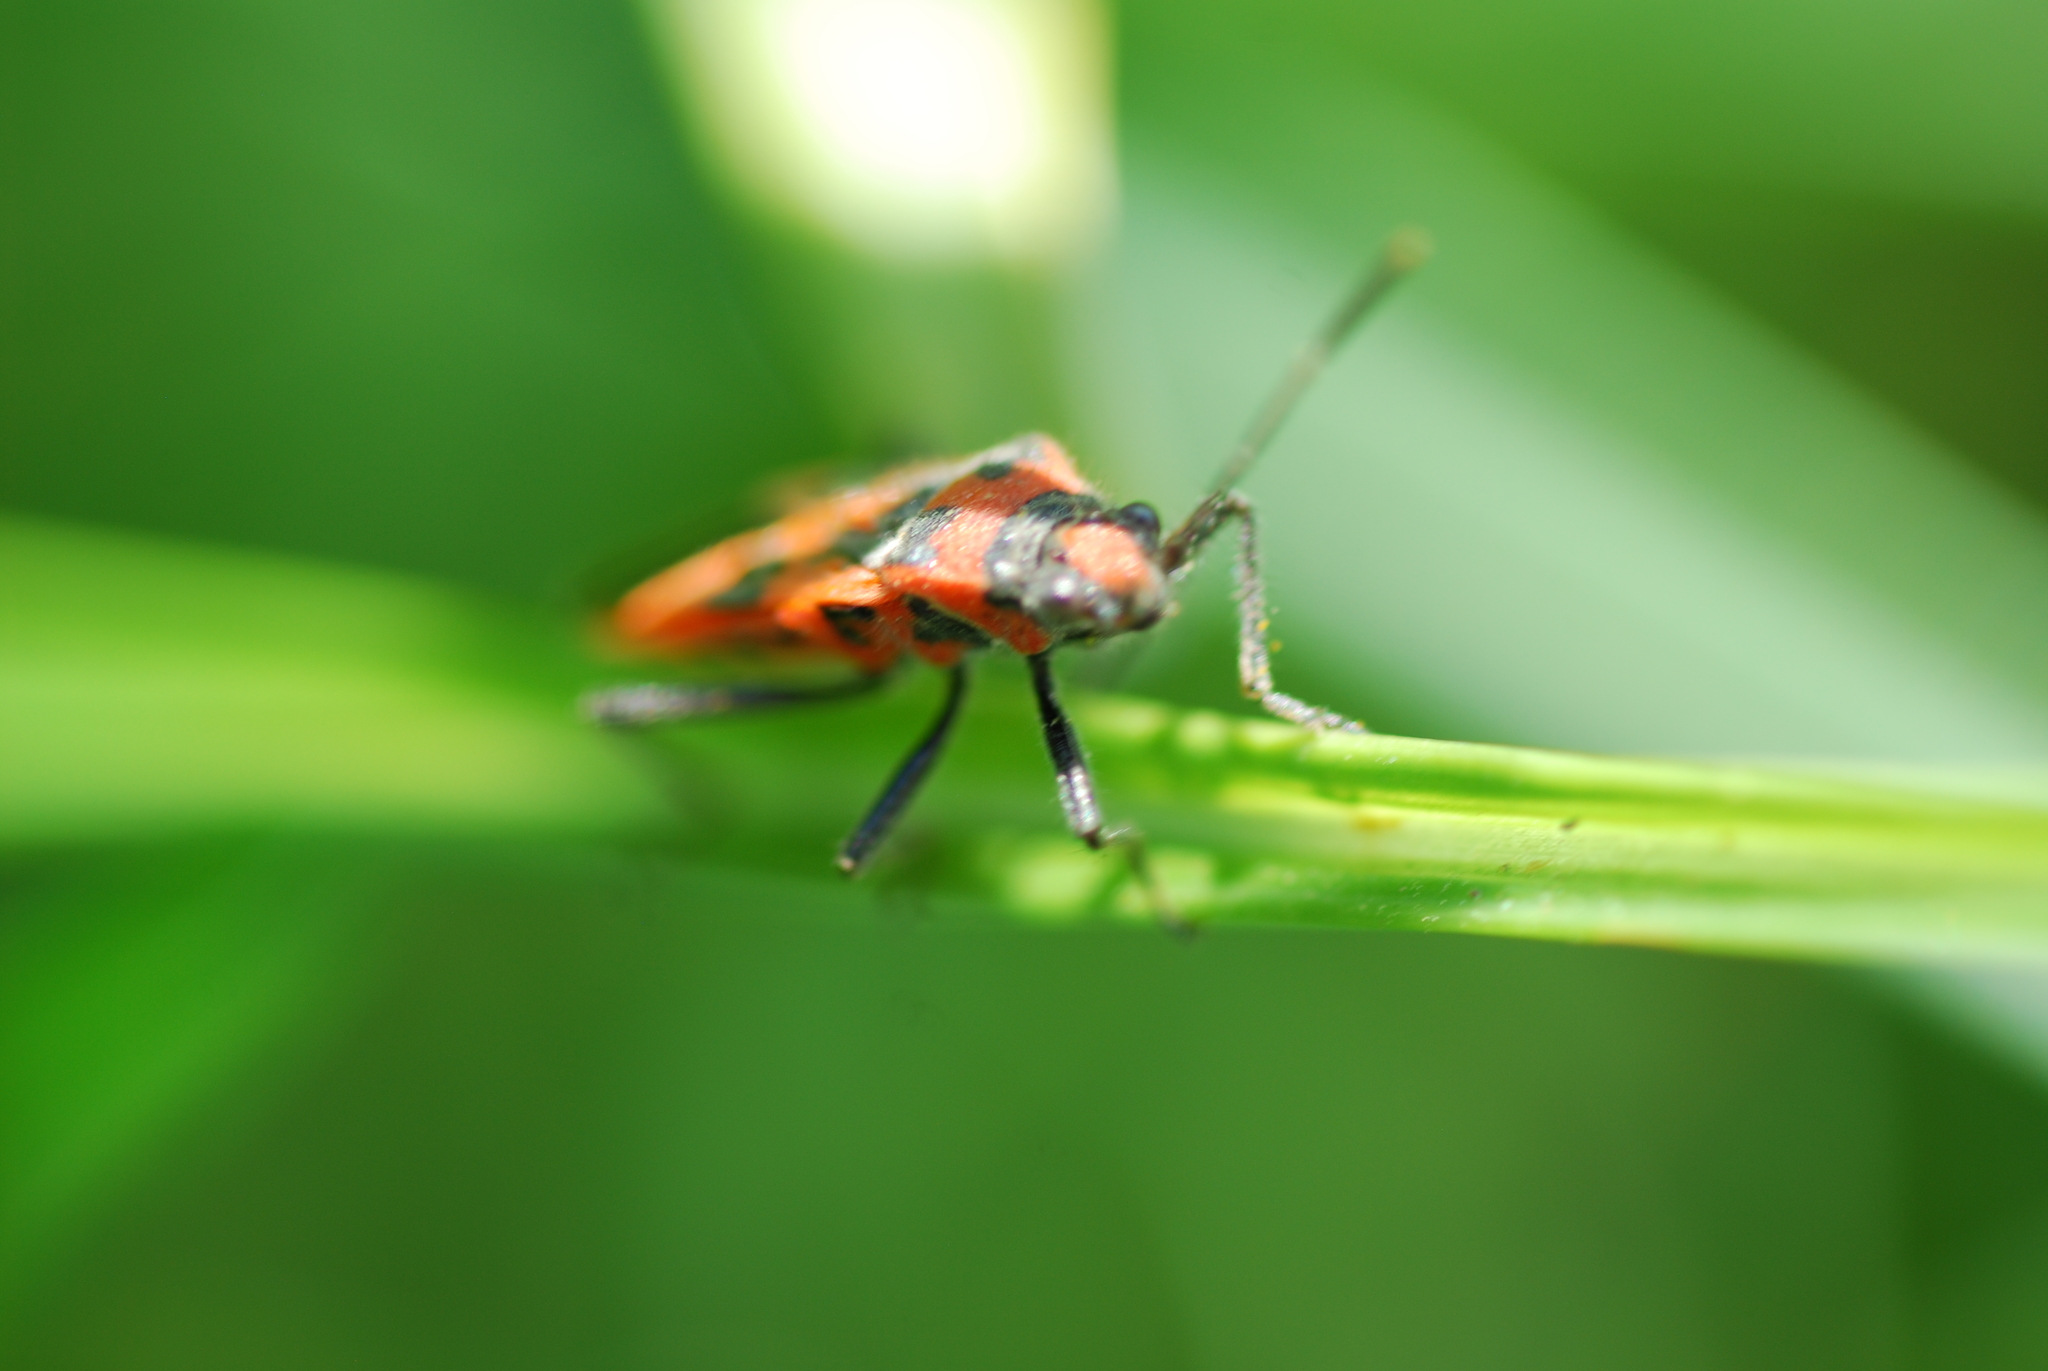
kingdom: Animalia
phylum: Arthropoda
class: Insecta
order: Hemiptera
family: Rhopalidae
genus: Corizus
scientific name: Corizus hyoscyami
